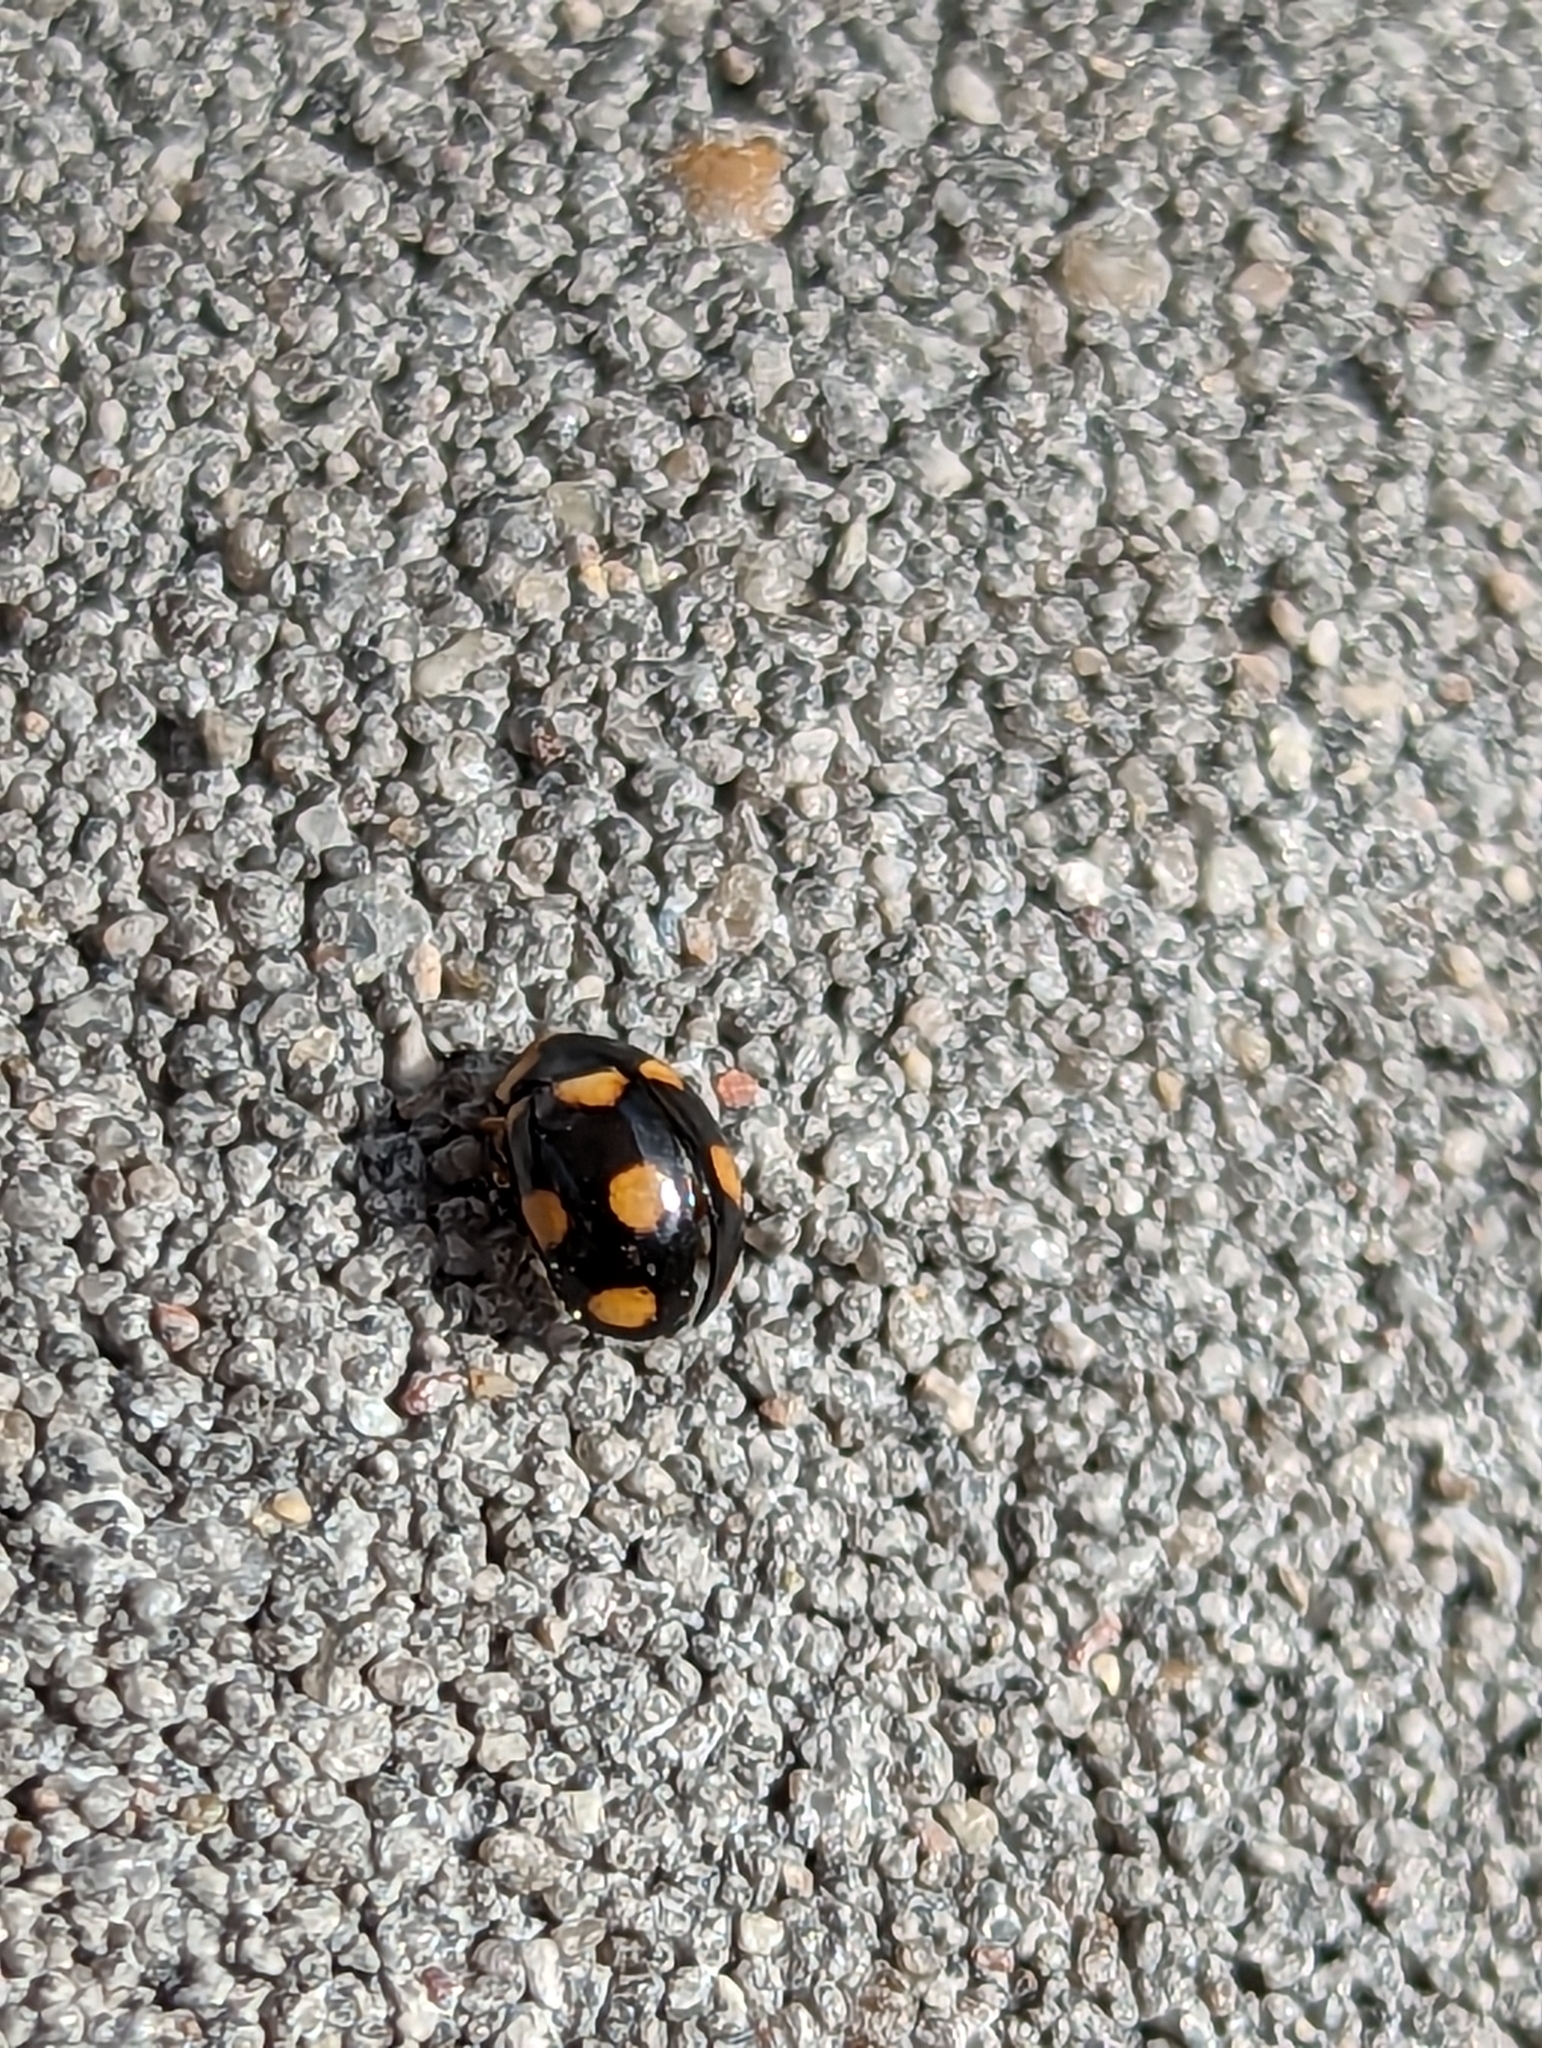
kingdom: Animalia
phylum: Arthropoda
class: Insecta
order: Coleoptera
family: Coccinellidae
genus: Brachiacantha
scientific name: Brachiacantha ursina
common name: Ursine spurleg lady beetle
